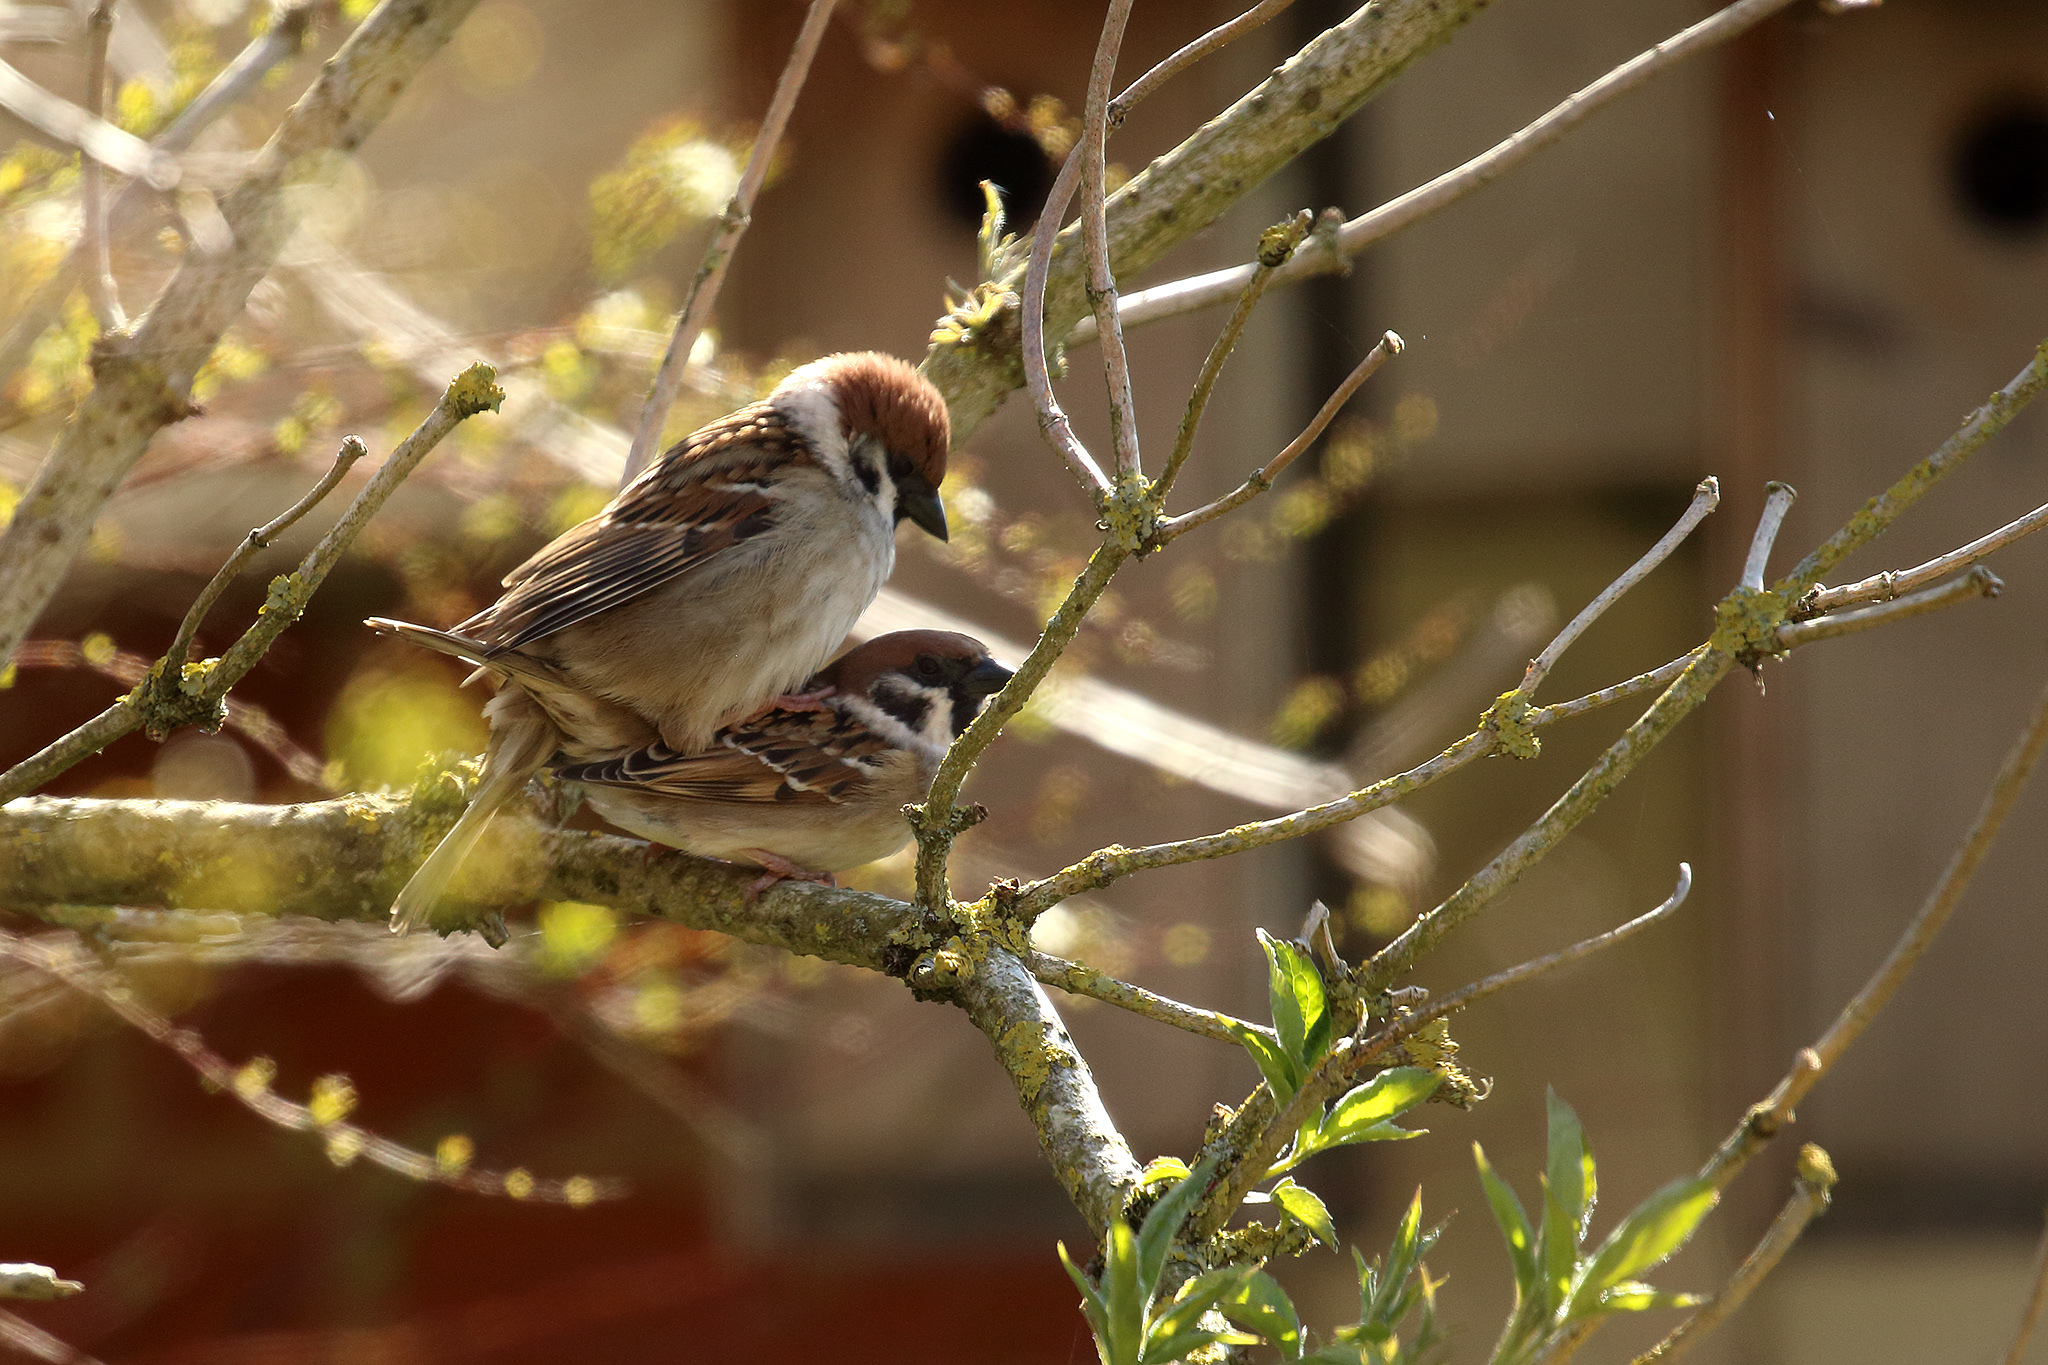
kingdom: Animalia
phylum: Chordata
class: Aves
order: Passeriformes
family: Passeridae
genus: Passer
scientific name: Passer montanus
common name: Eurasian tree sparrow
